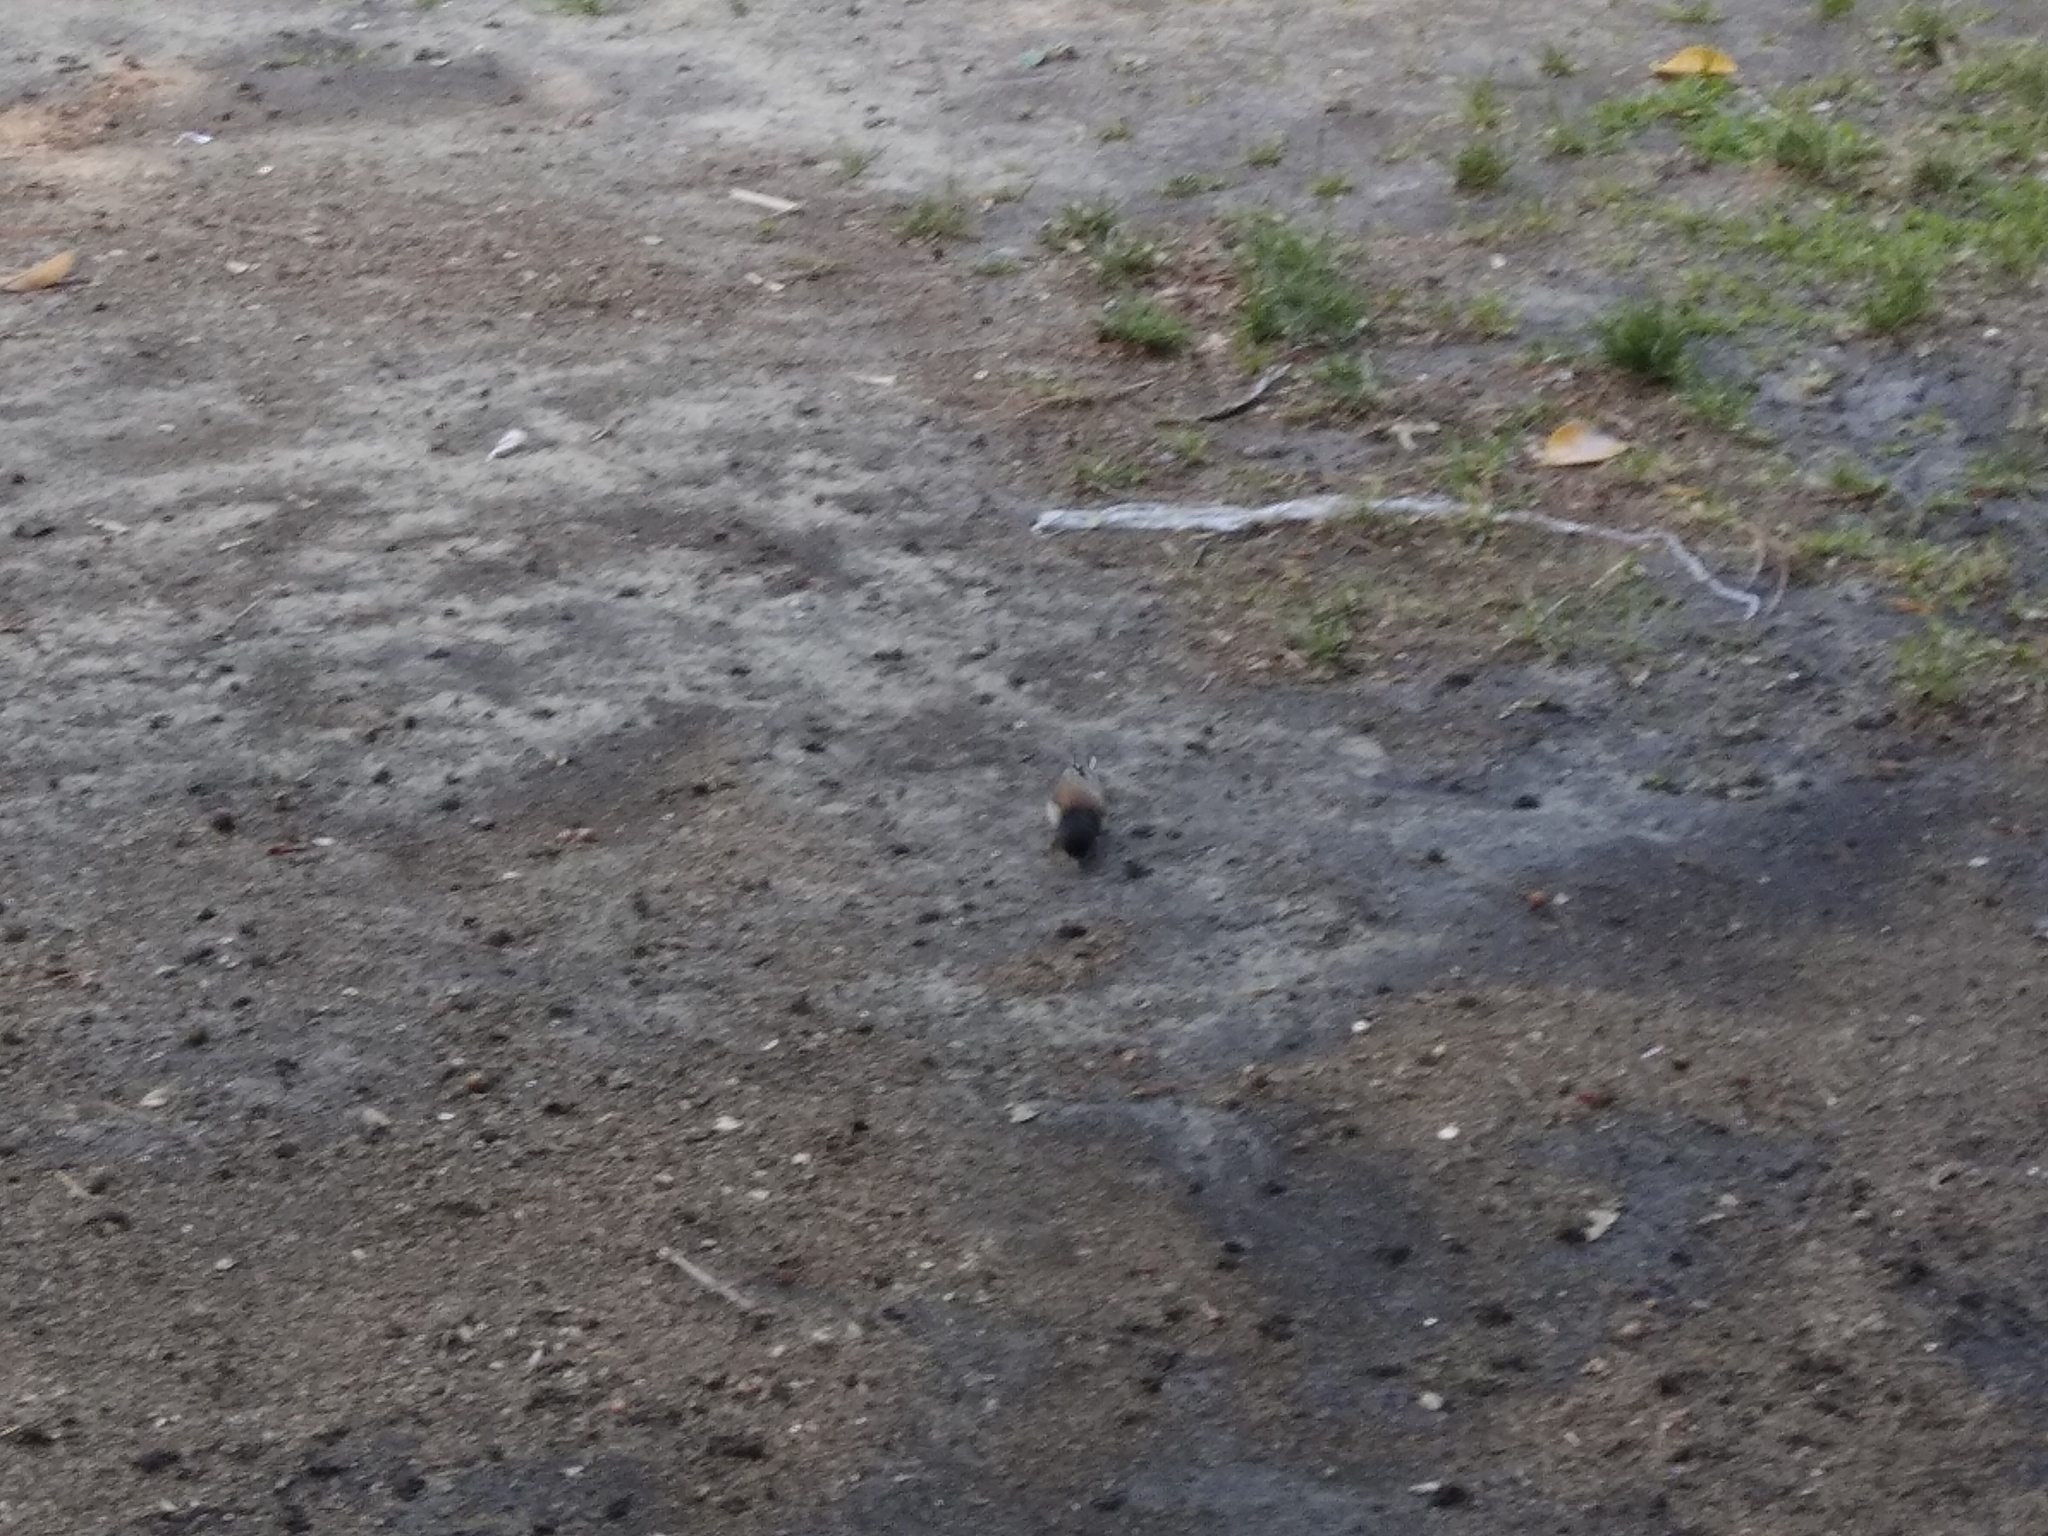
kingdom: Animalia
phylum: Chordata
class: Aves
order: Passeriformes
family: Passerellidae
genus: Junco
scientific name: Junco hyemalis
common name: Dark-eyed junco
